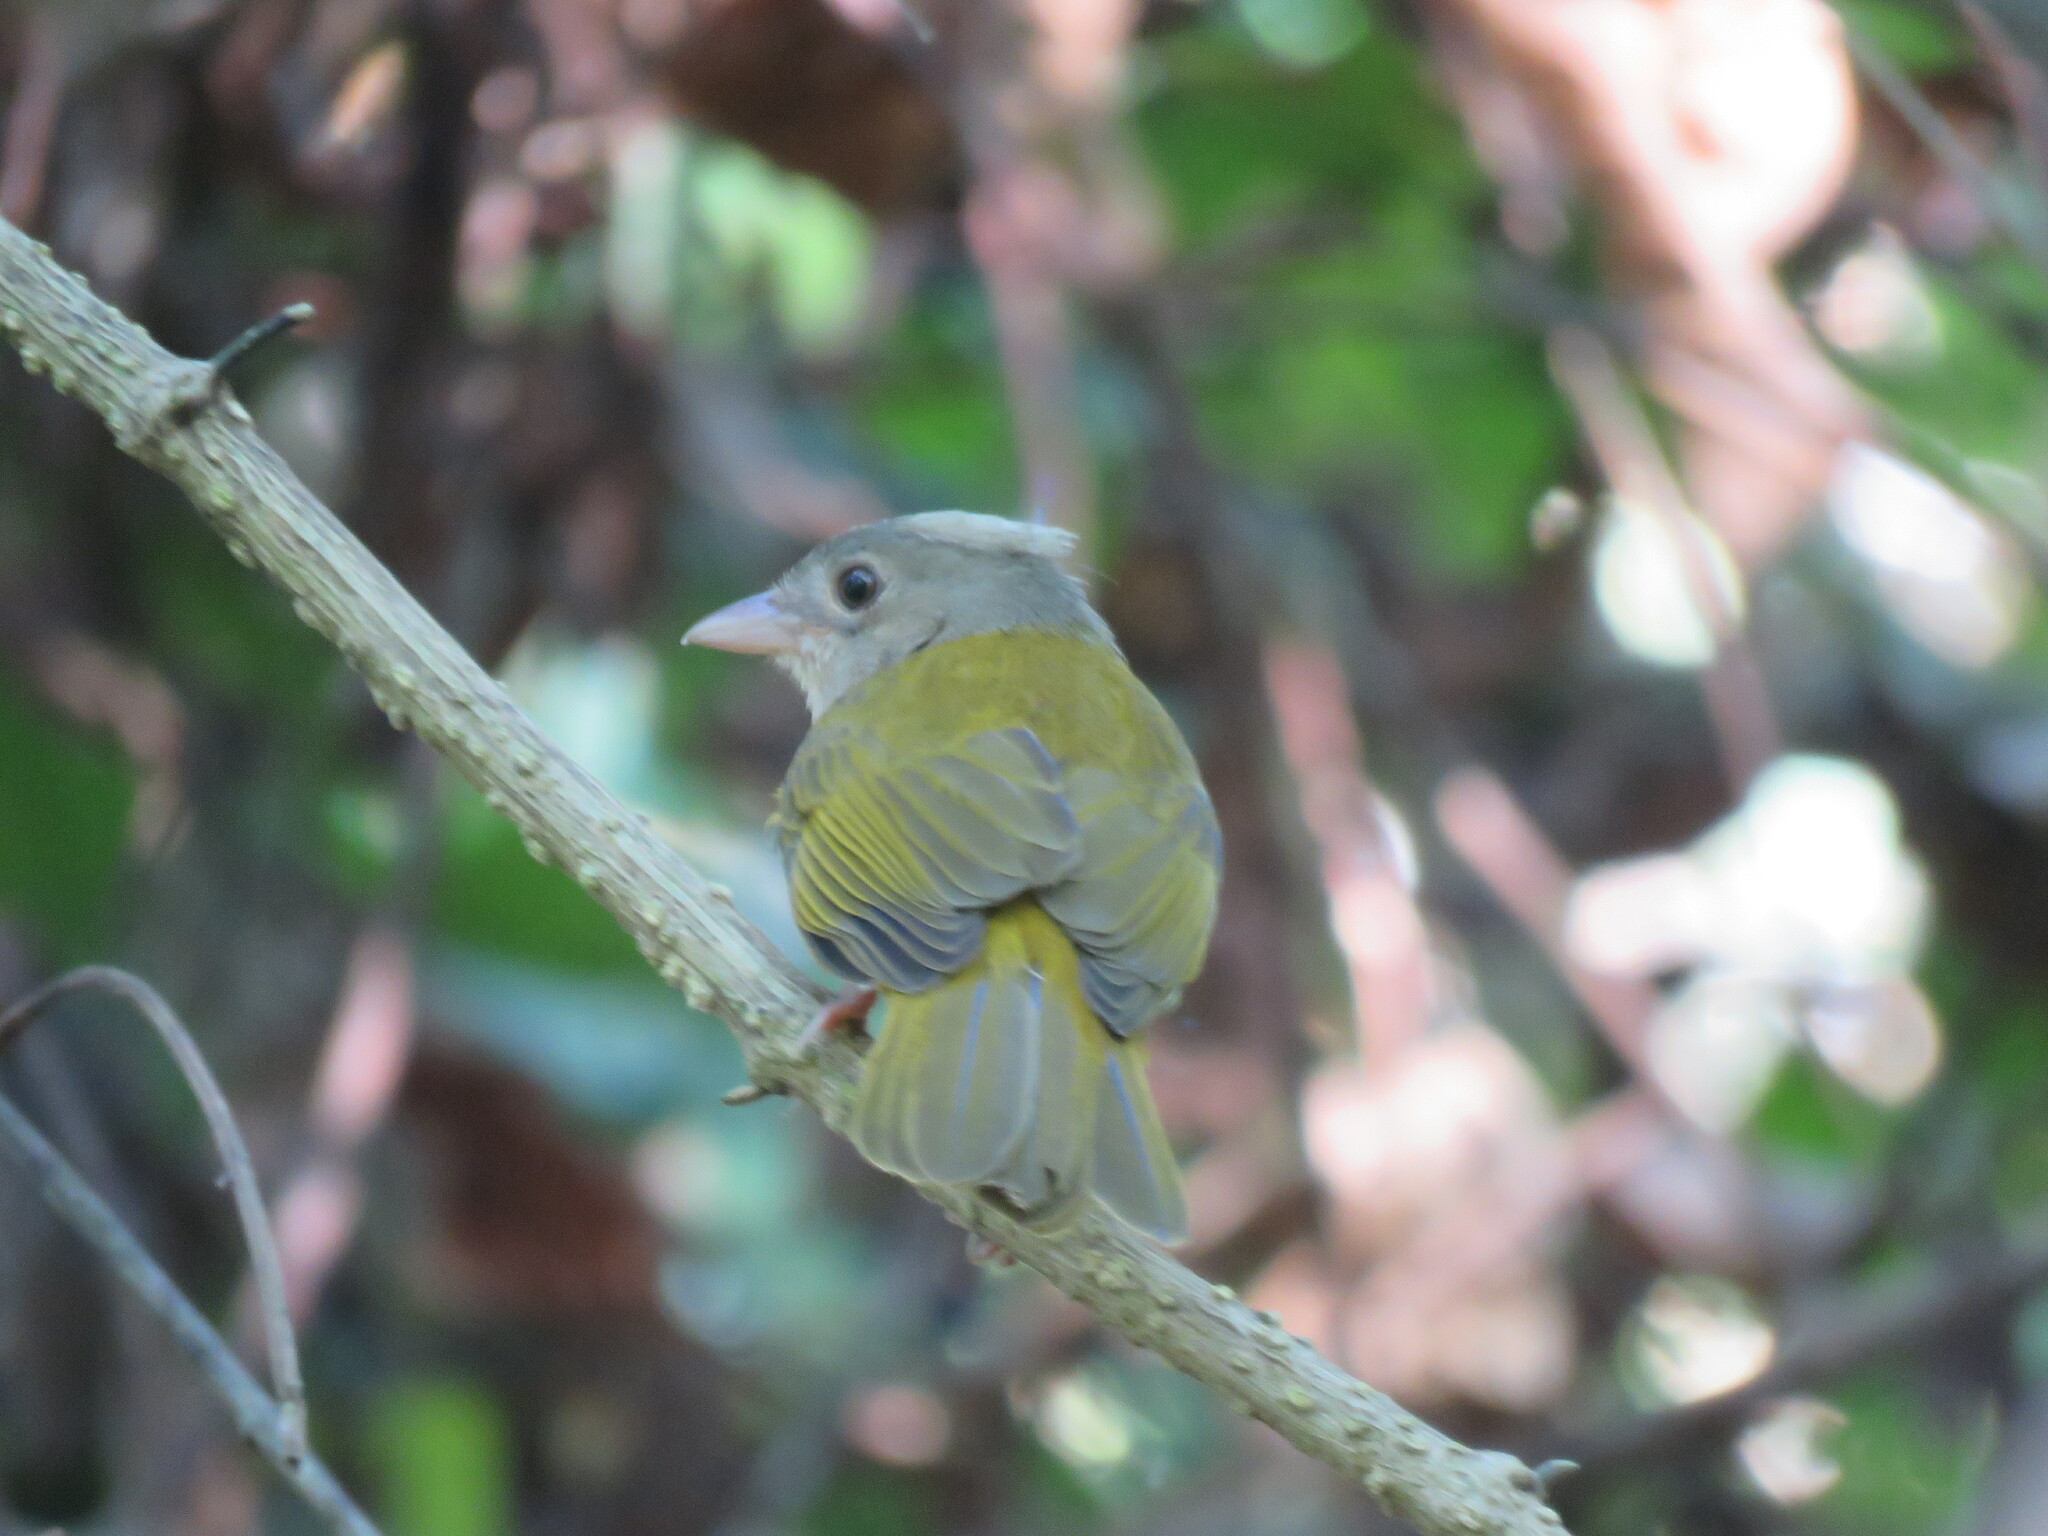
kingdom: Animalia
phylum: Chordata
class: Aves
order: Passeriformes
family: Thraupidae
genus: Eucometis
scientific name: Eucometis penicillata
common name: Grey-headed tanager
